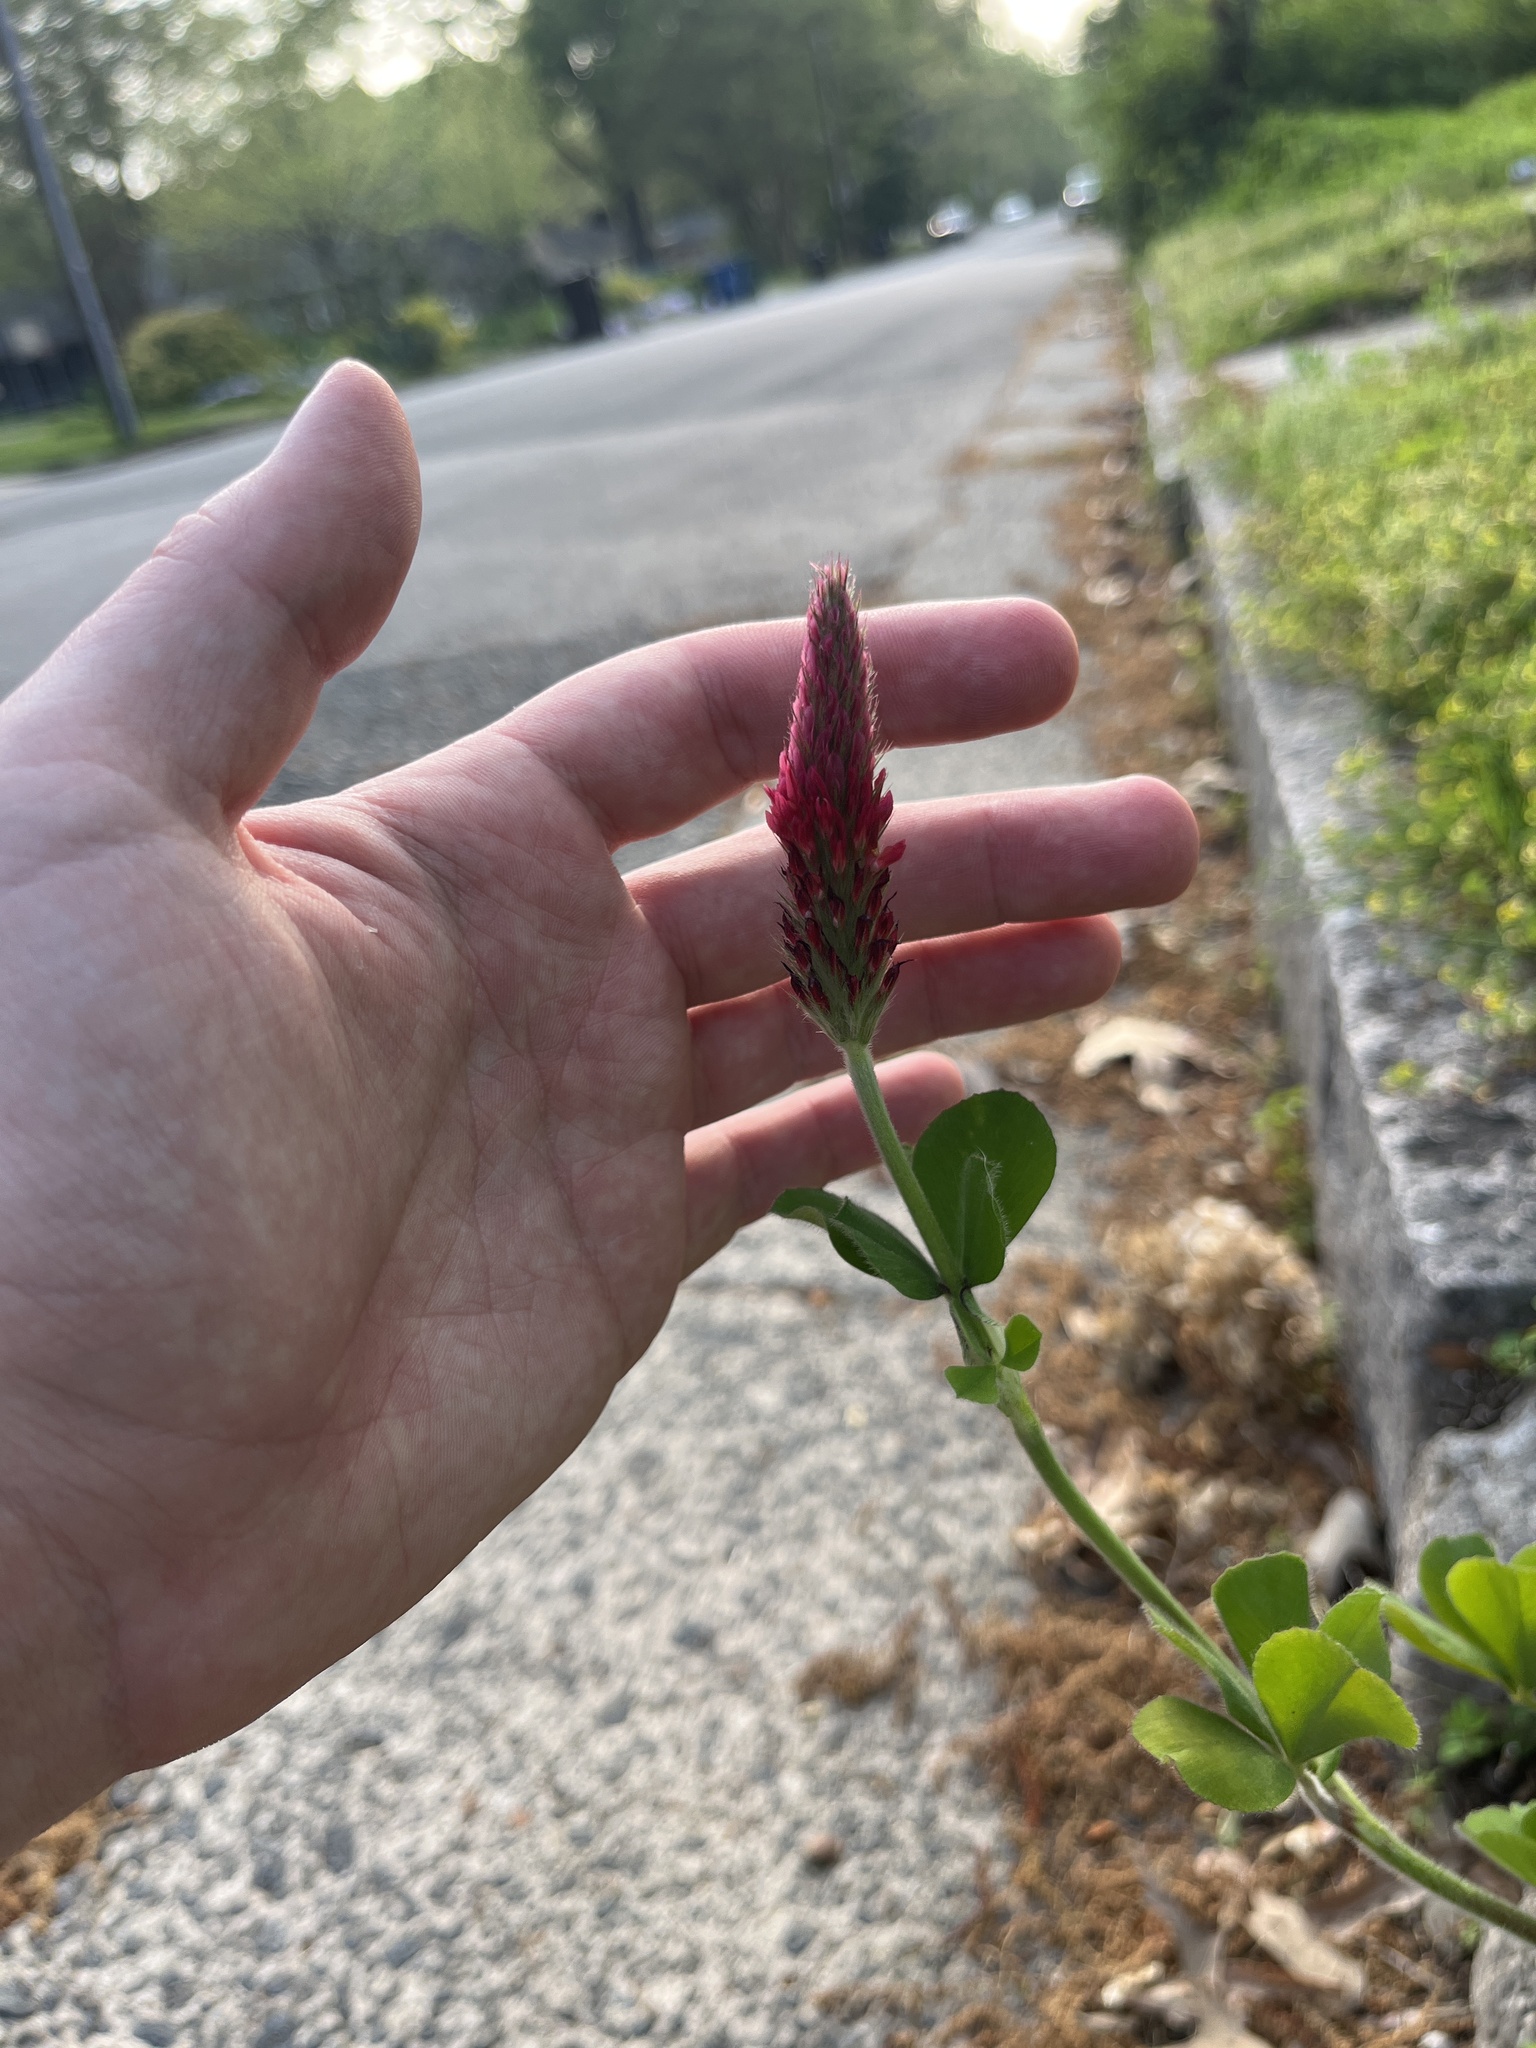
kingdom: Plantae
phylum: Tracheophyta
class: Magnoliopsida
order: Fabales
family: Fabaceae
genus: Trifolium
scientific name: Trifolium incarnatum
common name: Crimson clover
